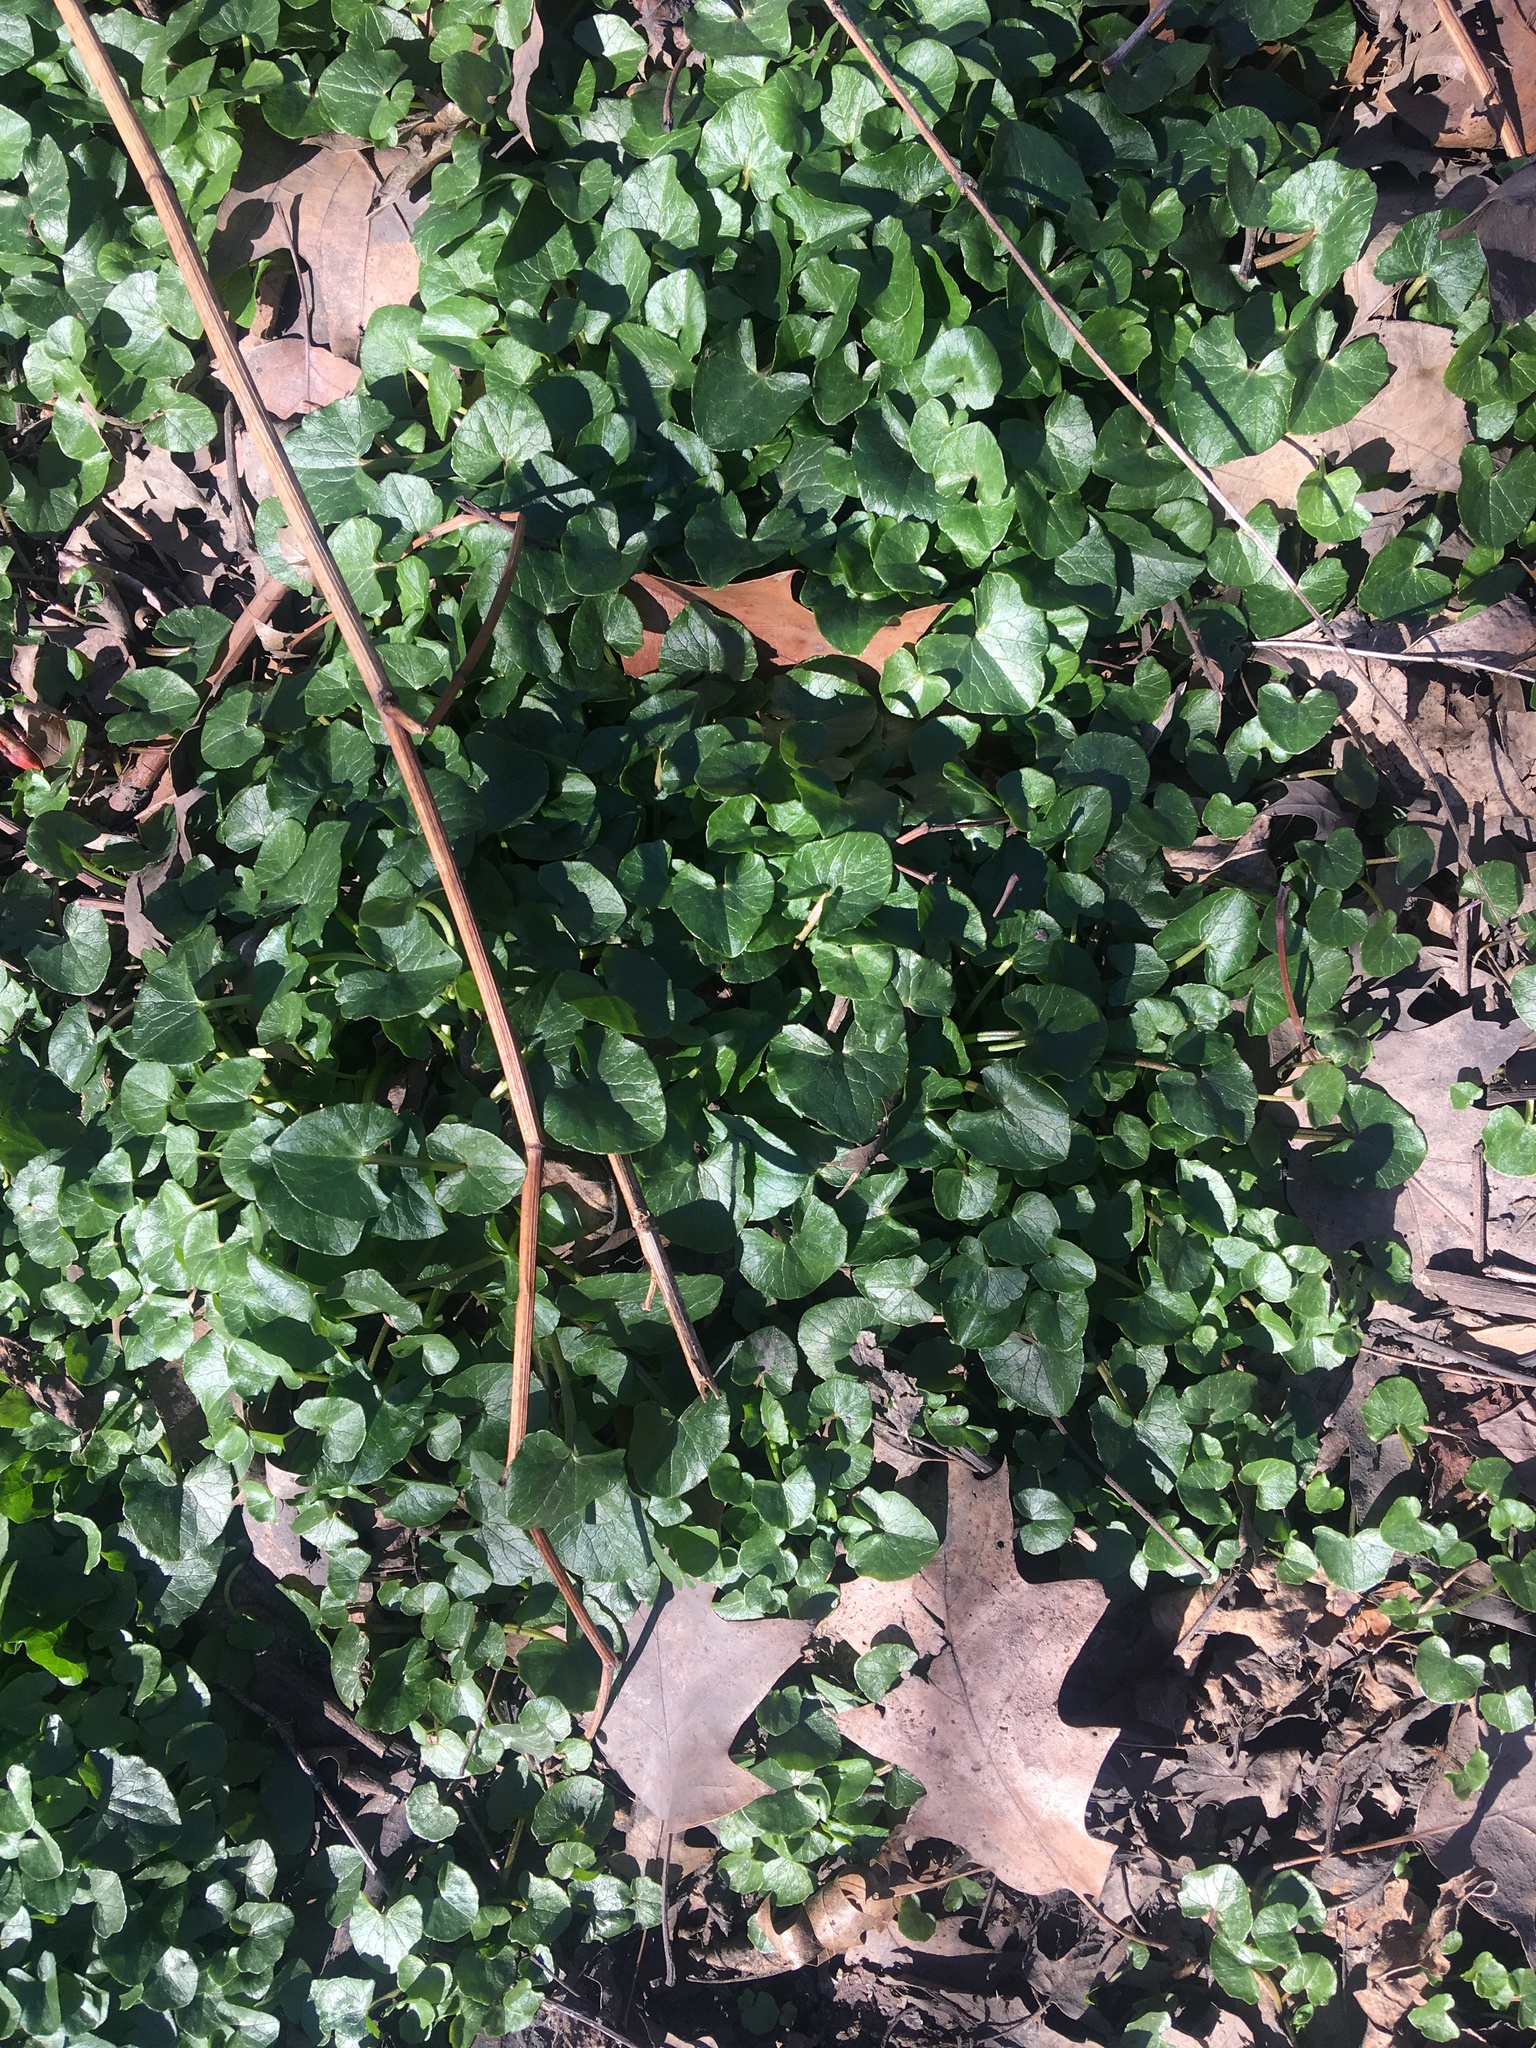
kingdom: Plantae
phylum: Tracheophyta
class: Magnoliopsida
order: Ranunculales
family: Ranunculaceae
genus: Ficaria
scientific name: Ficaria verna
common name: Lesser celandine
